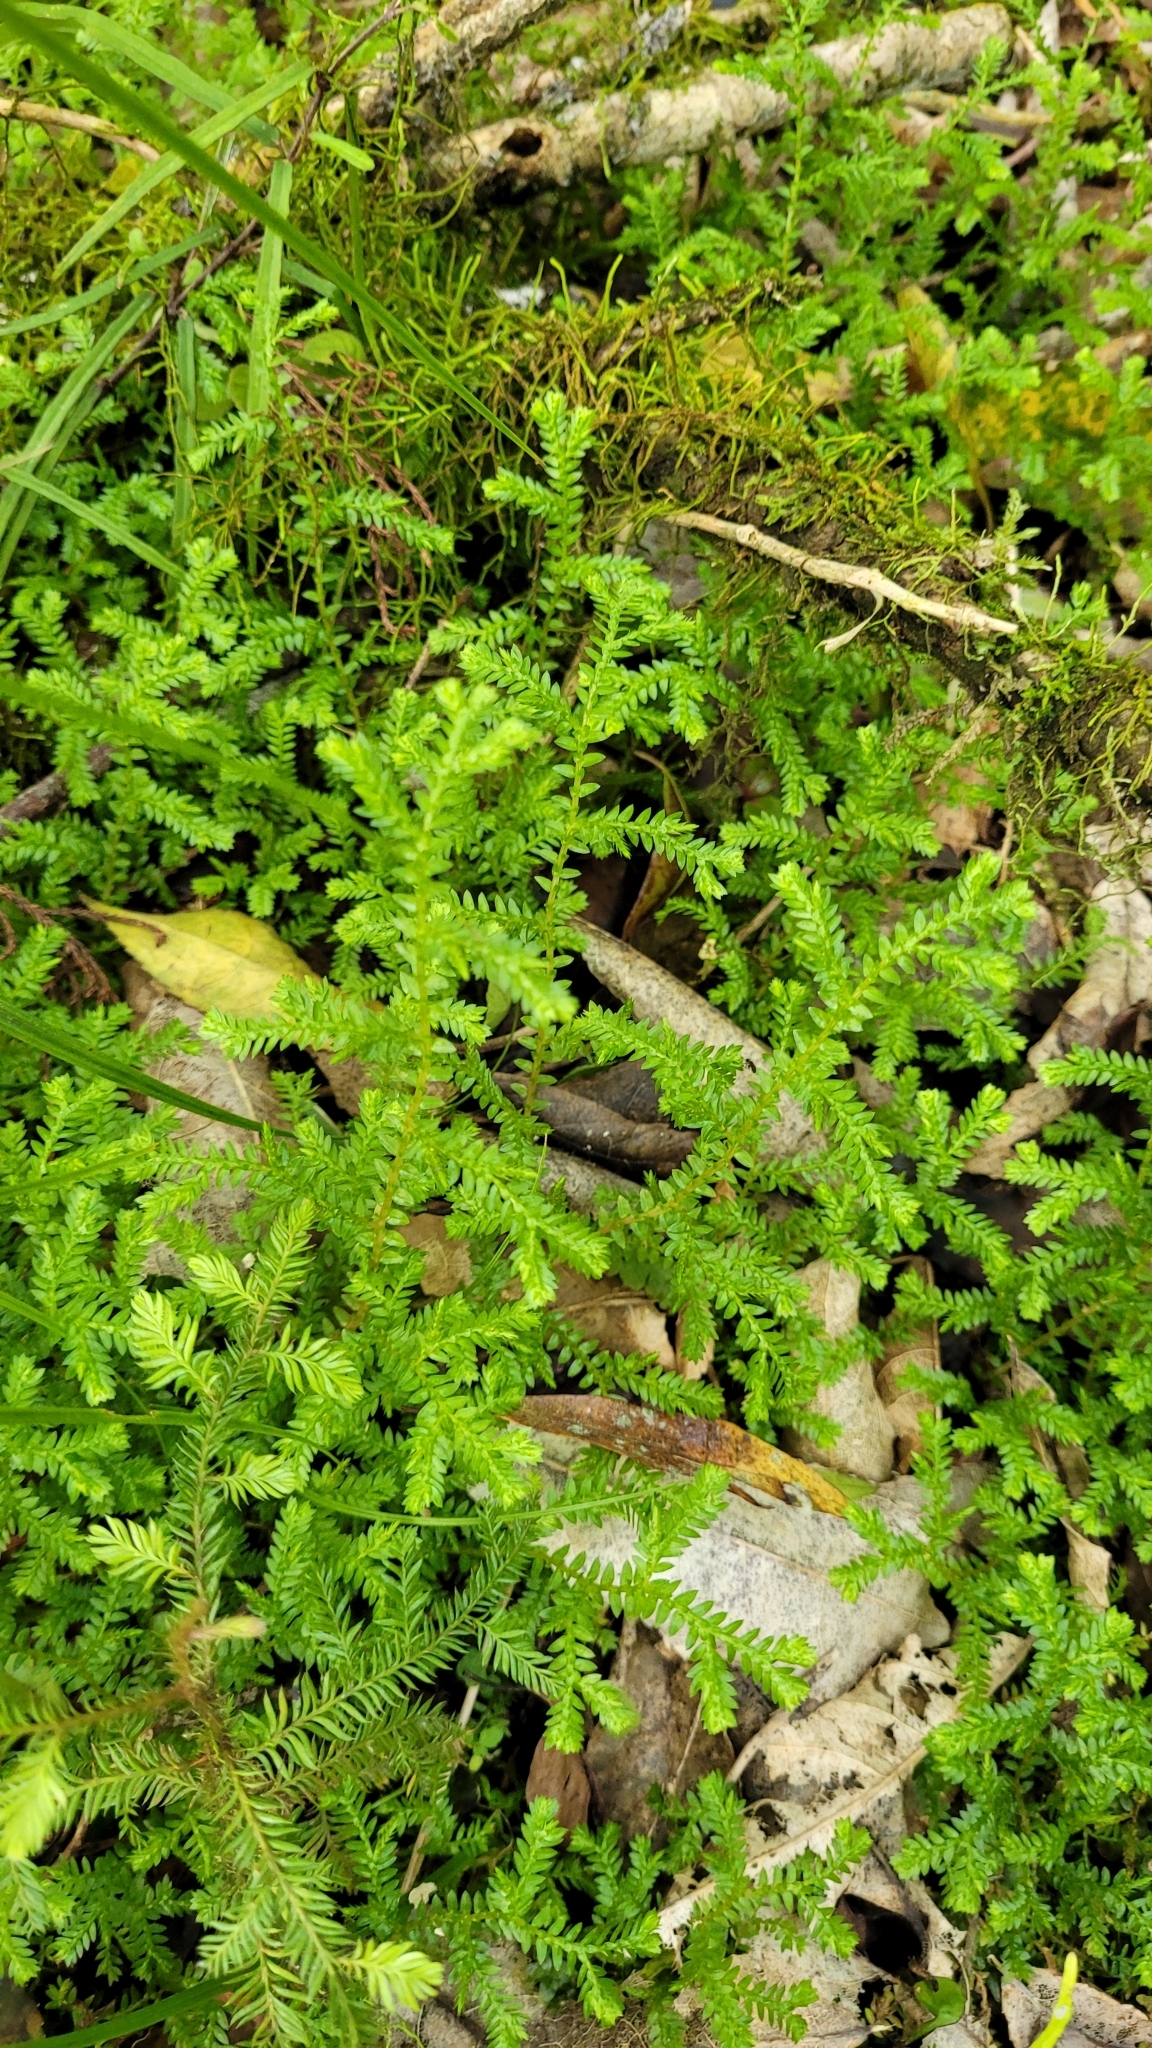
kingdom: Plantae
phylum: Tracheophyta
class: Lycopodiopsida
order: Selaginellales
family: Selaginellaceae
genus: Selaginella
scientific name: Selaginella kraussiana
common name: Krauss' spikemoss
